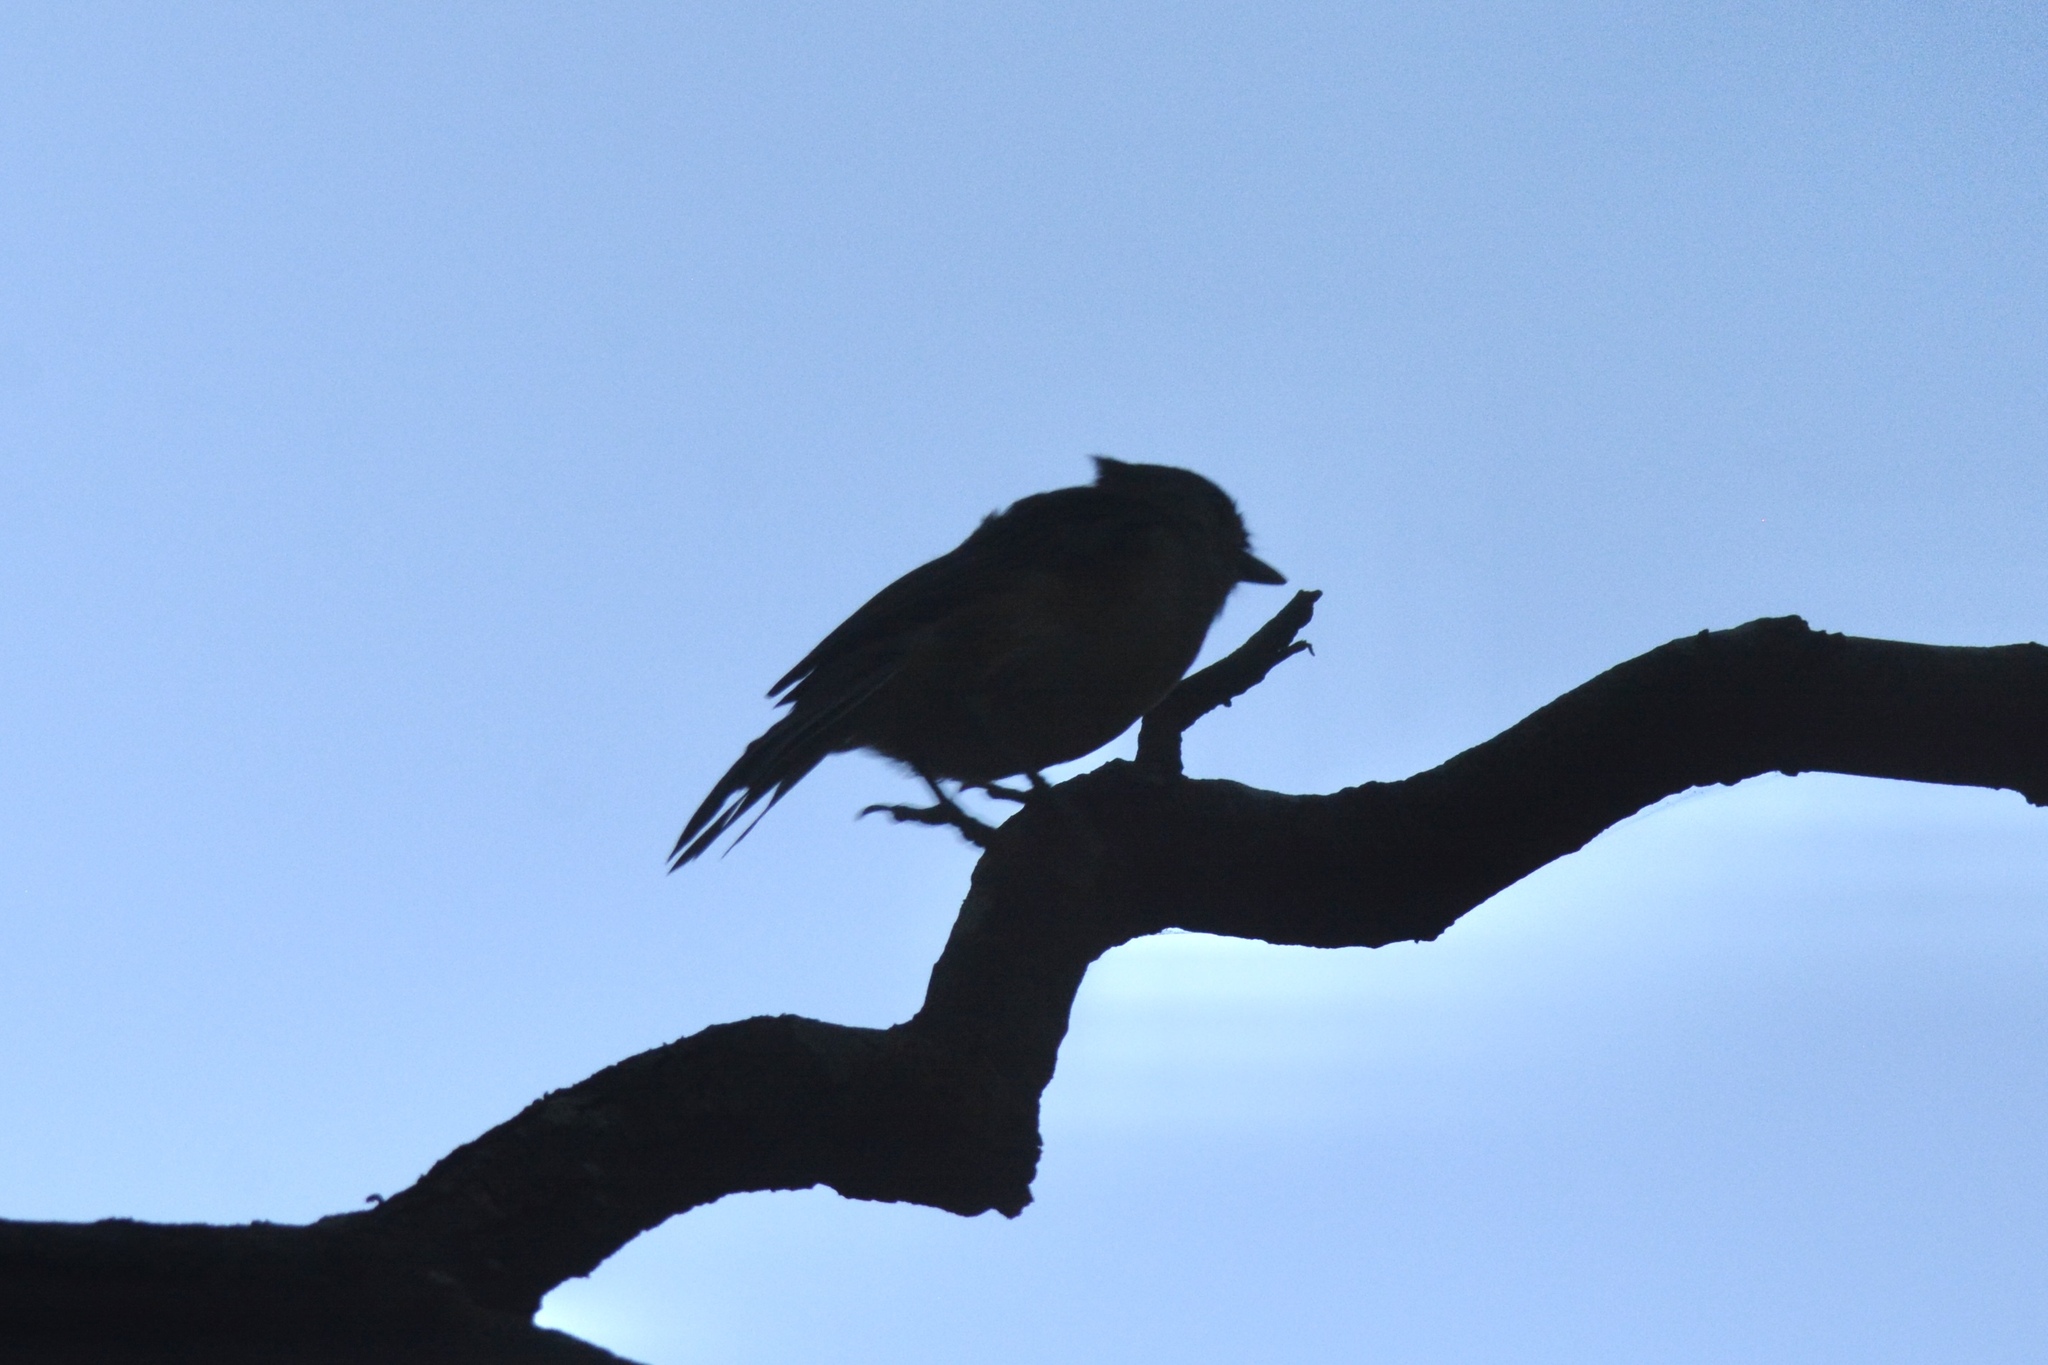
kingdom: Animalia
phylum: Chordata
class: Aves
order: Passeriformes
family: Paridae
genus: Baeolophus
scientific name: Baeolophus bicolor
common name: Tufted titmouse
